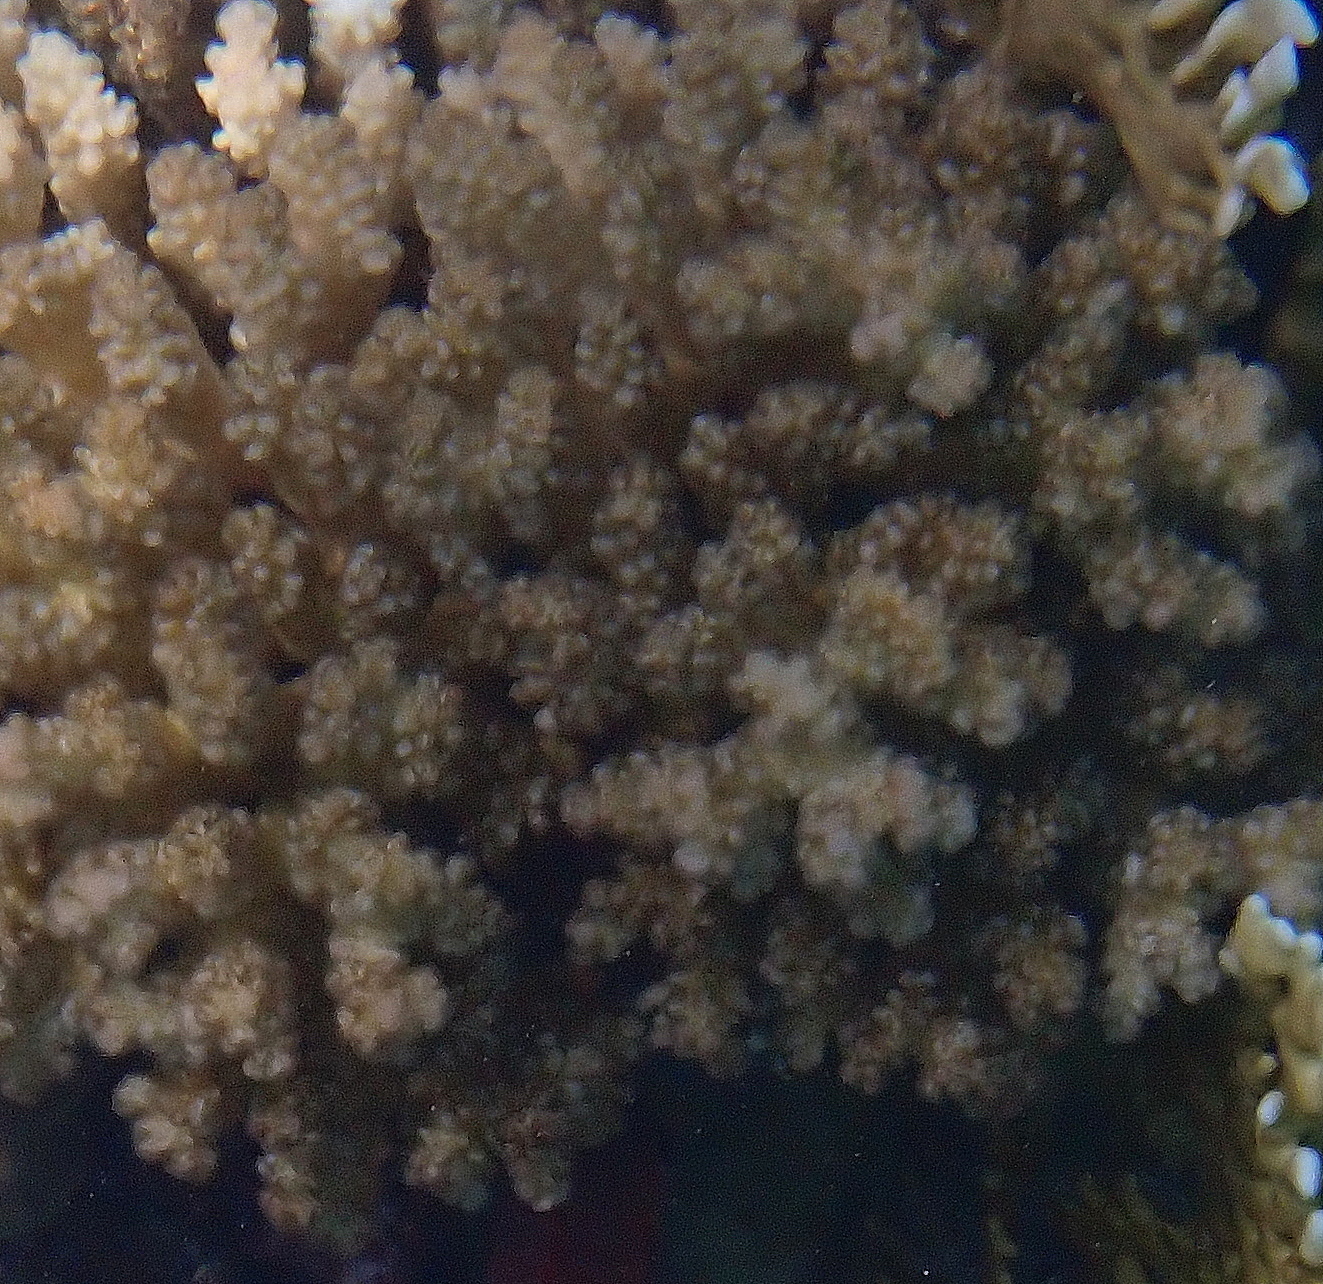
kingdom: Animalia
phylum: Cnidaria
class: Anthozoa
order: Scleractinia
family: Pocilloporidae
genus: Pocillopora
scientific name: Pocillopora verrucosa
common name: Cauliflower coral
